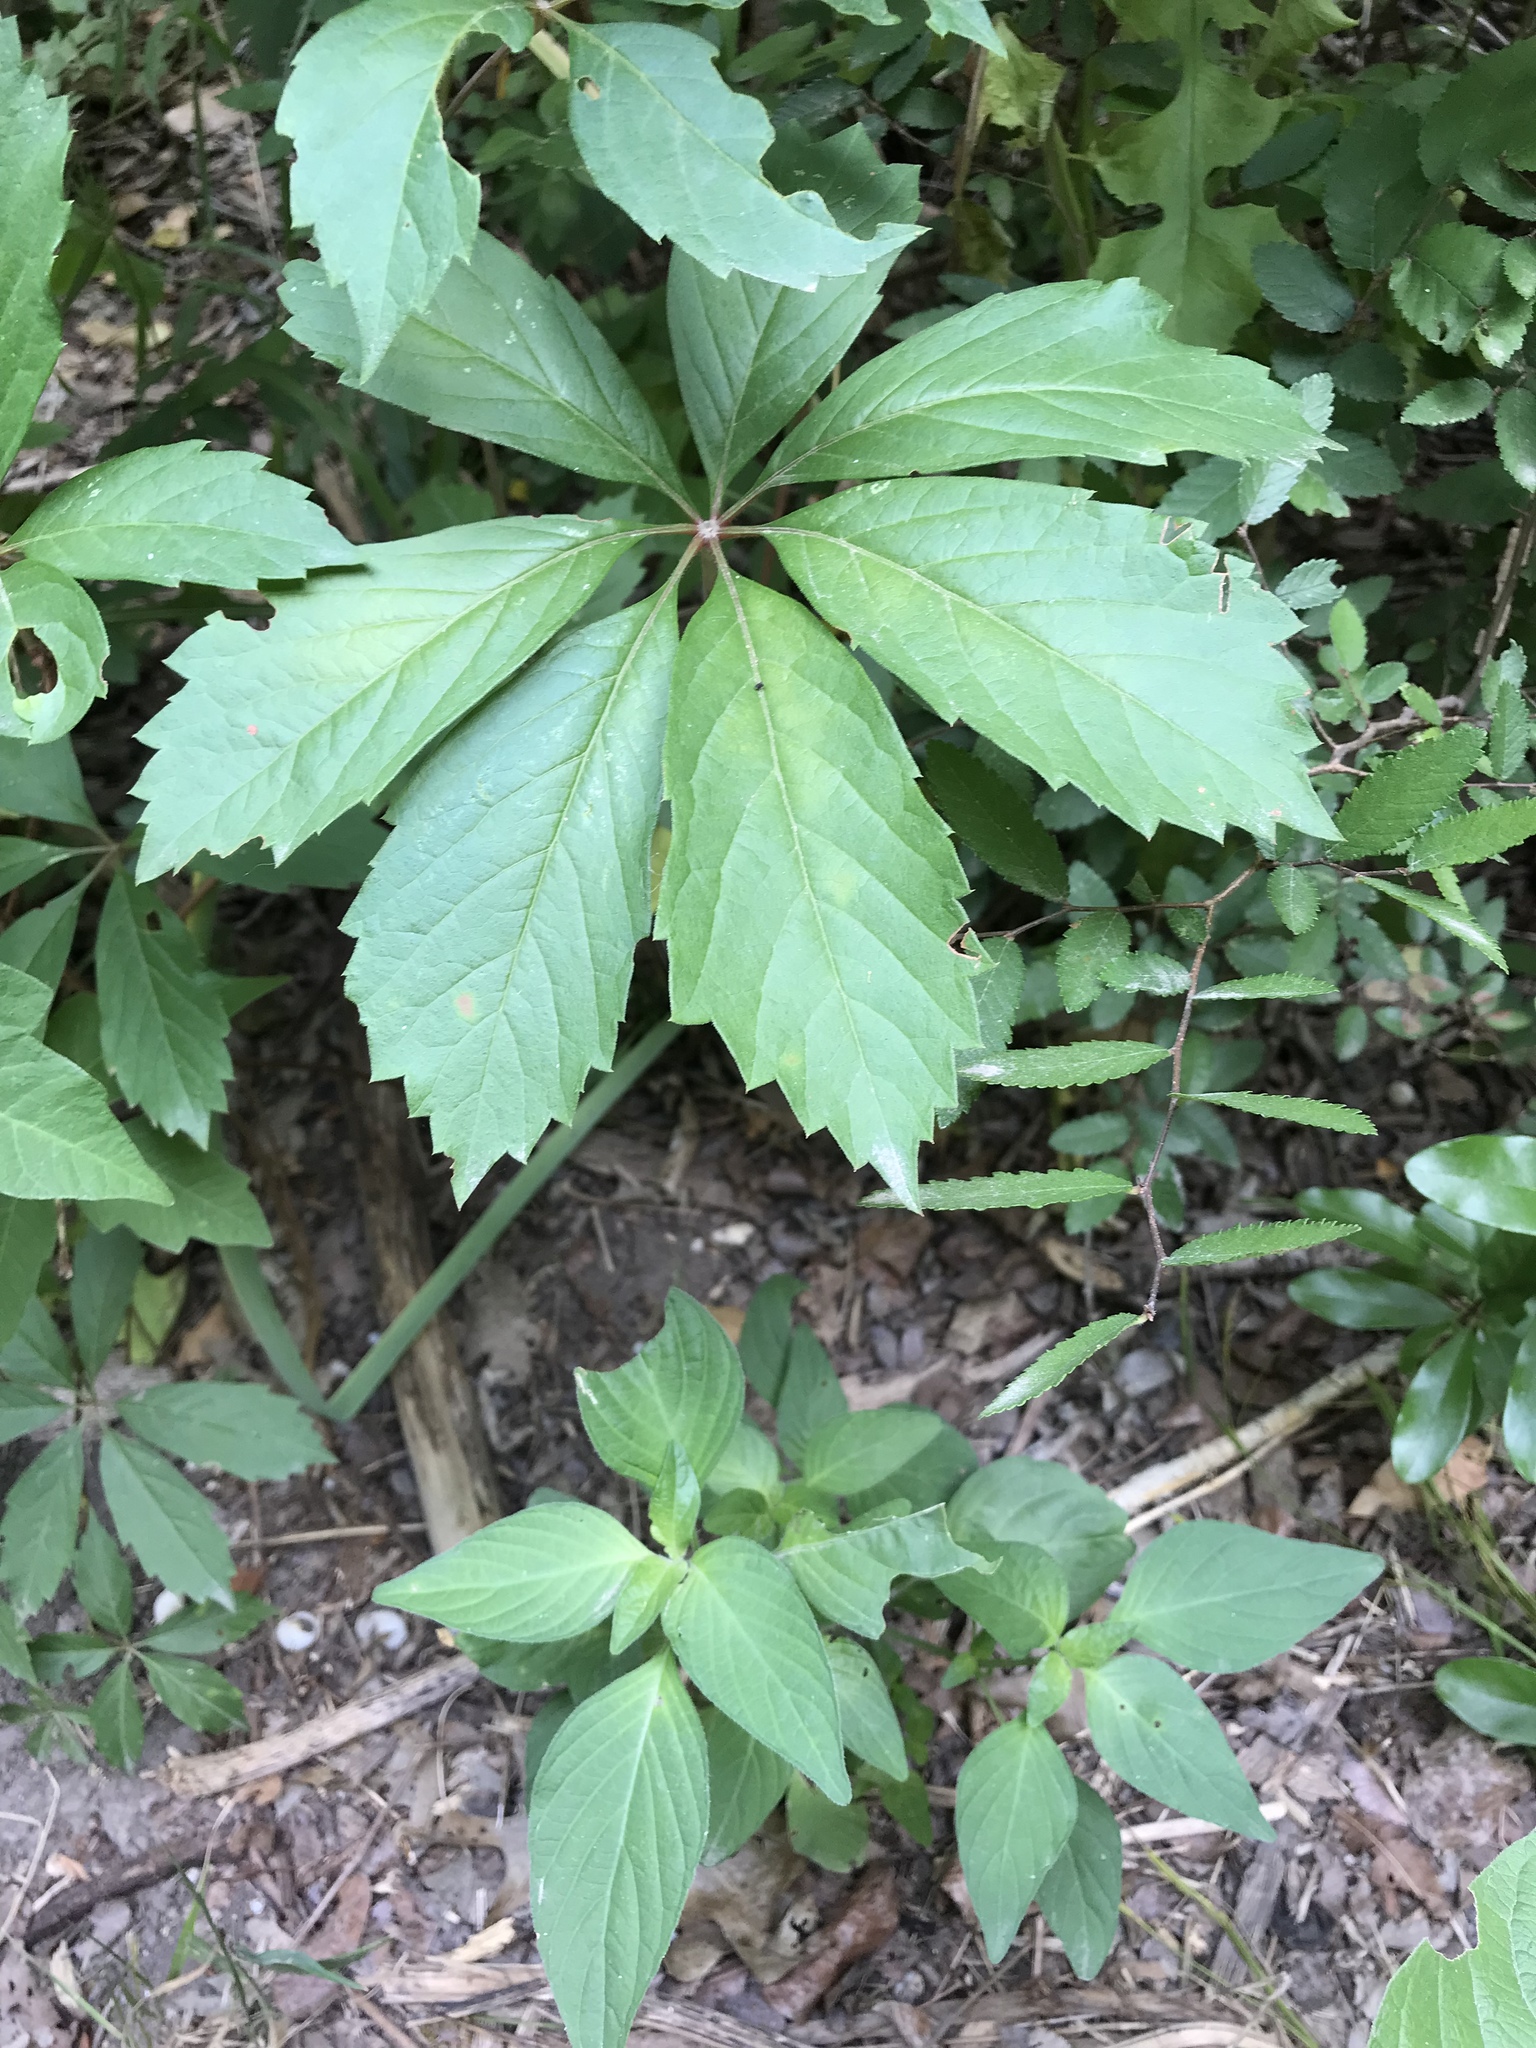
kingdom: Plantae
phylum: Tracheophyta
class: Magnoliopsida
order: Vitales
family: Vitaceae
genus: Parthenocissus
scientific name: Parthenocissus heptaphylla
